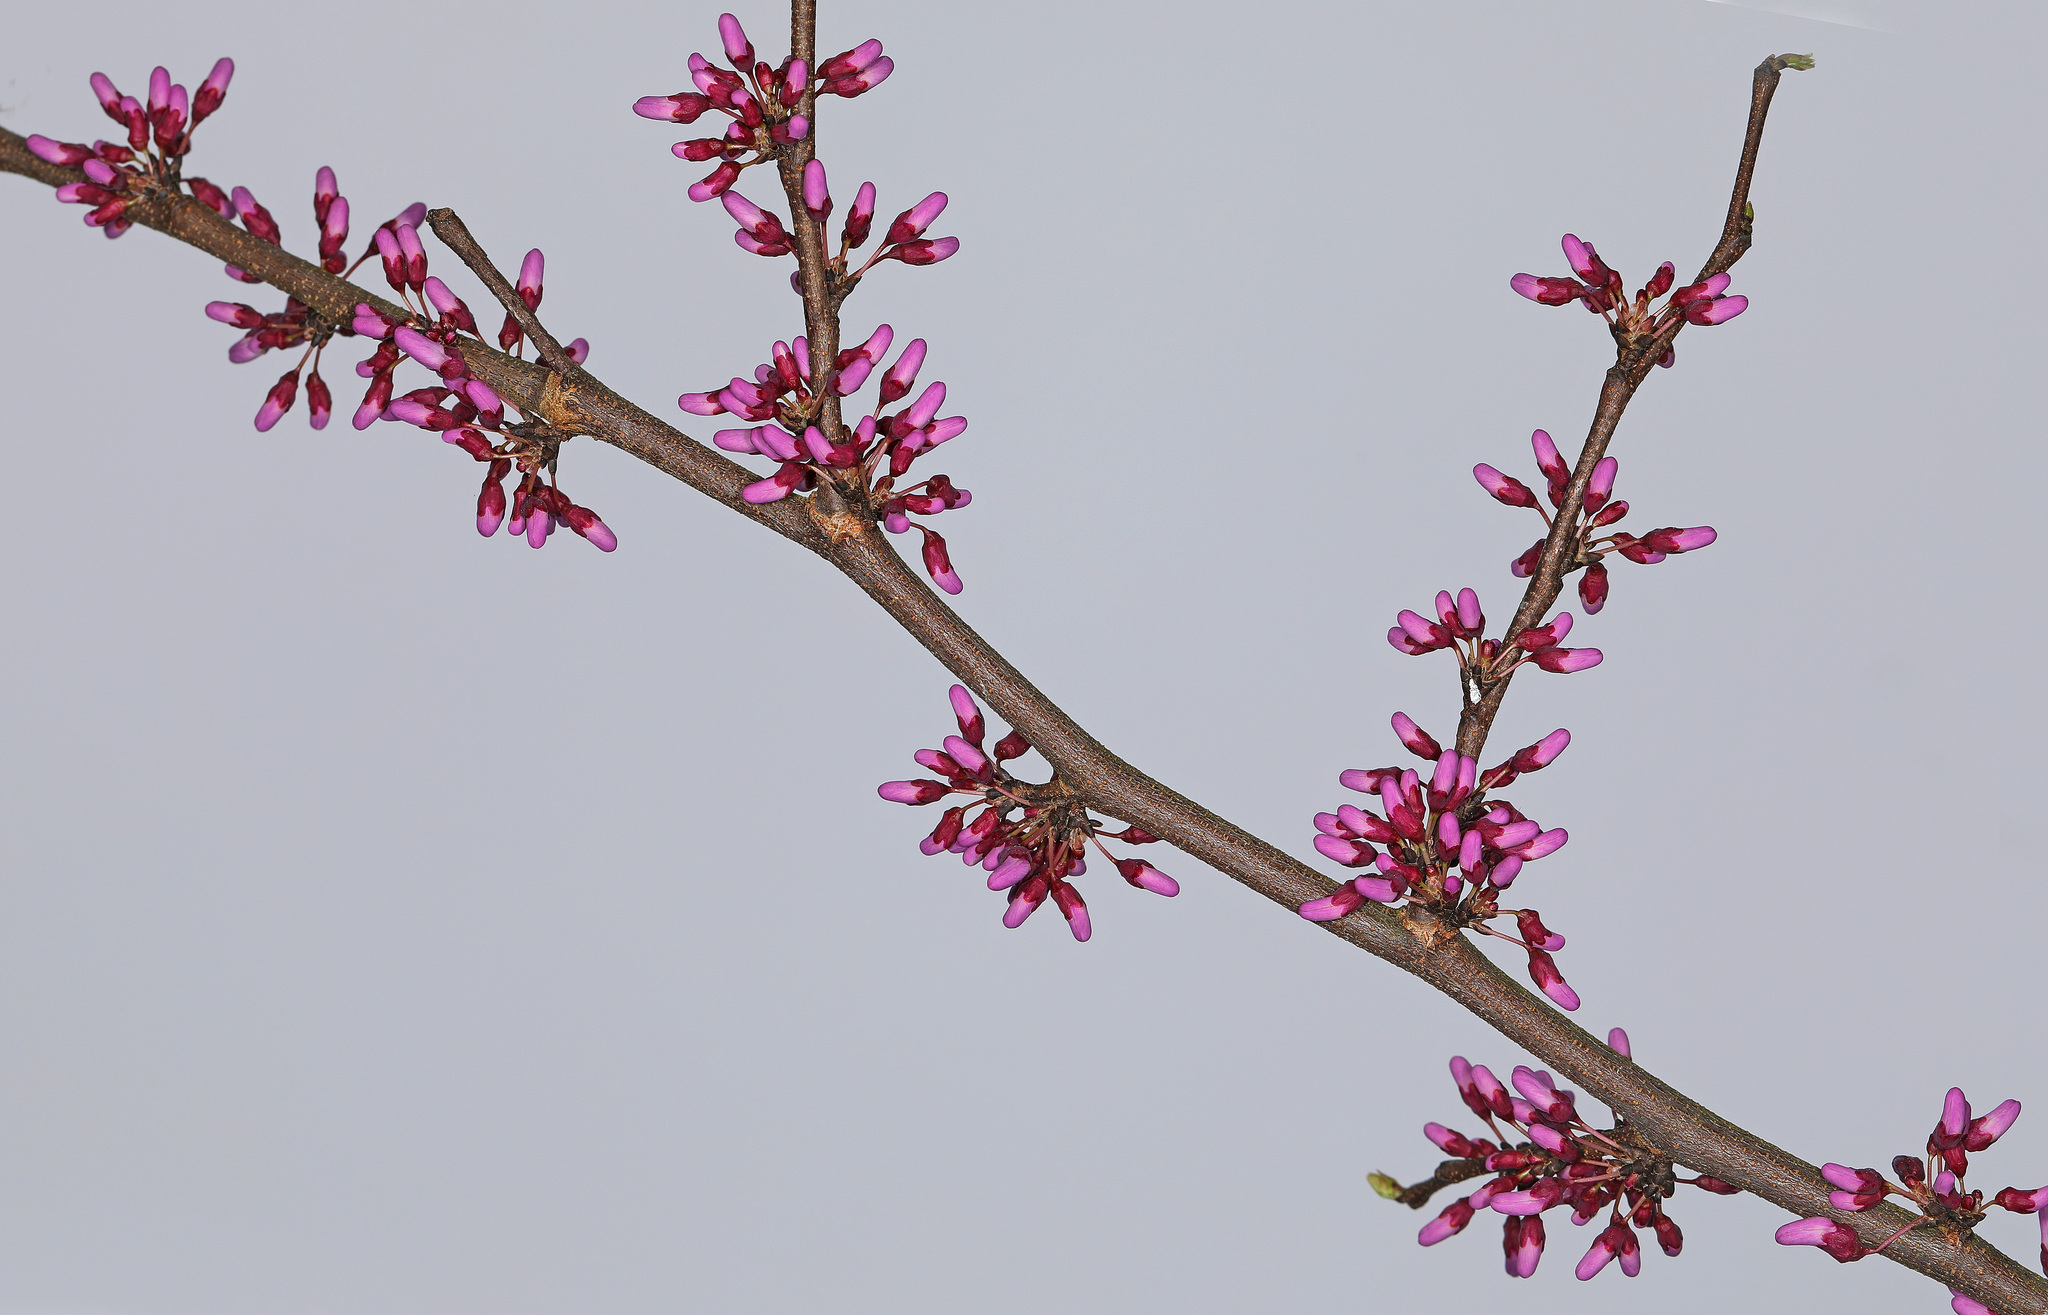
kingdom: Plantae
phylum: Tracheophyta
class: Magnoliopsida
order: Fabales
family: Fabaceae
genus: Cercis
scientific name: Cercis canadensis
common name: Eastern redbud
